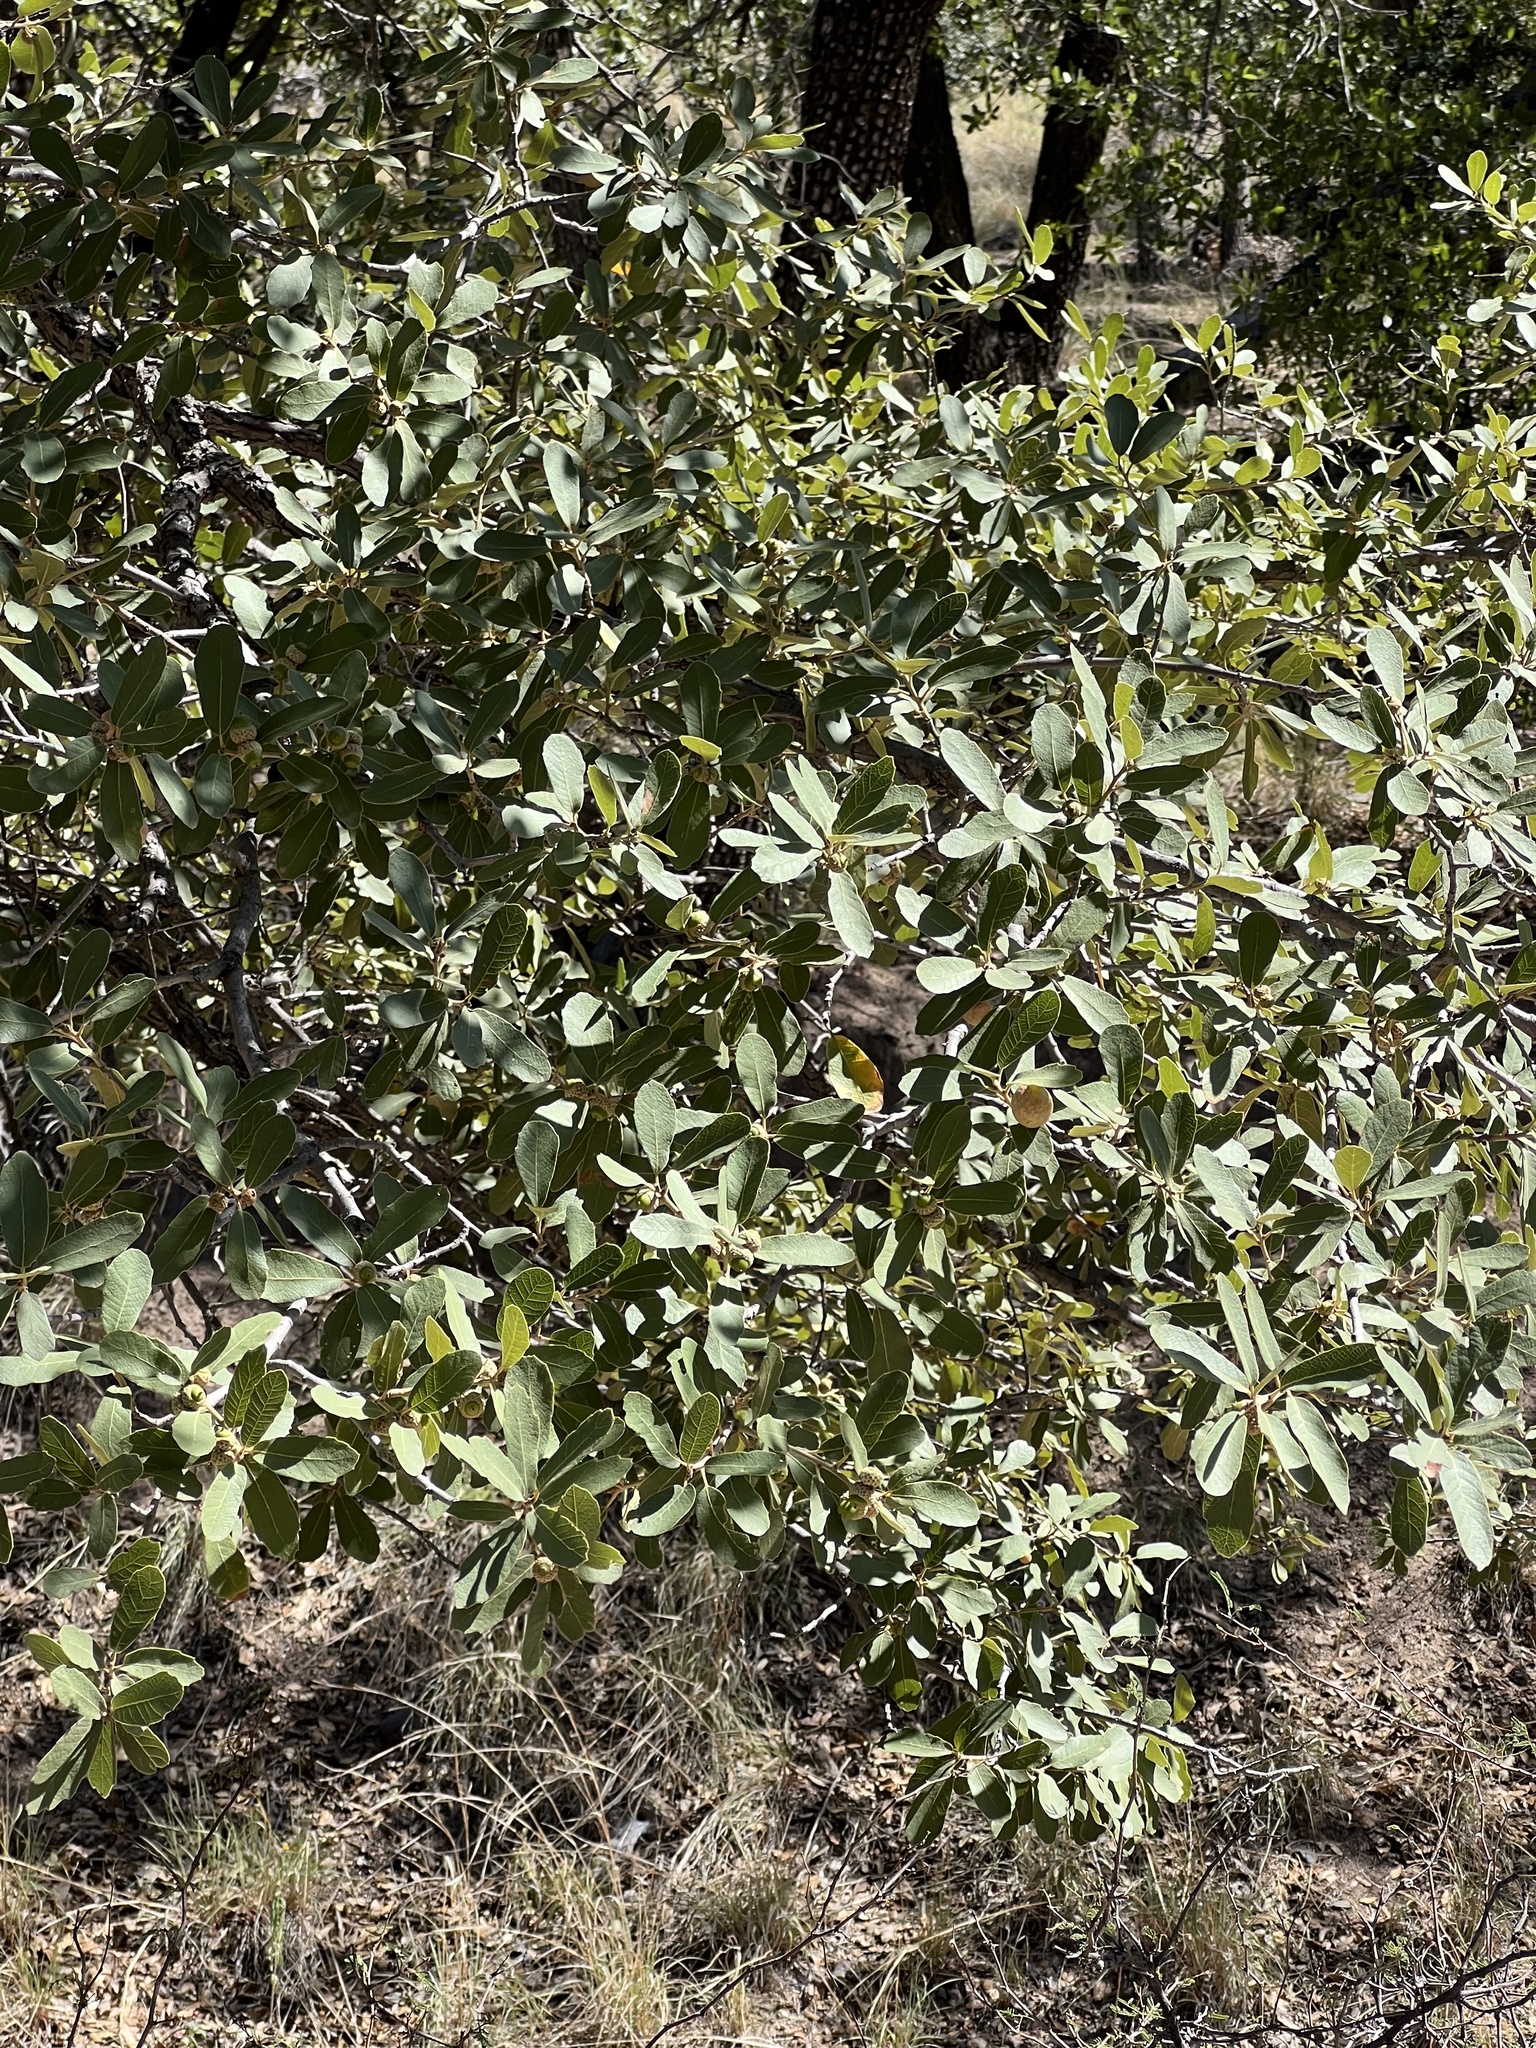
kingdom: Plantae
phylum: Tracheophyta
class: Magnoliopsida
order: Fagales
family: Fagaceae
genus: Quercus
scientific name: Quercus oblongifolia
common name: Mexican blue oak
